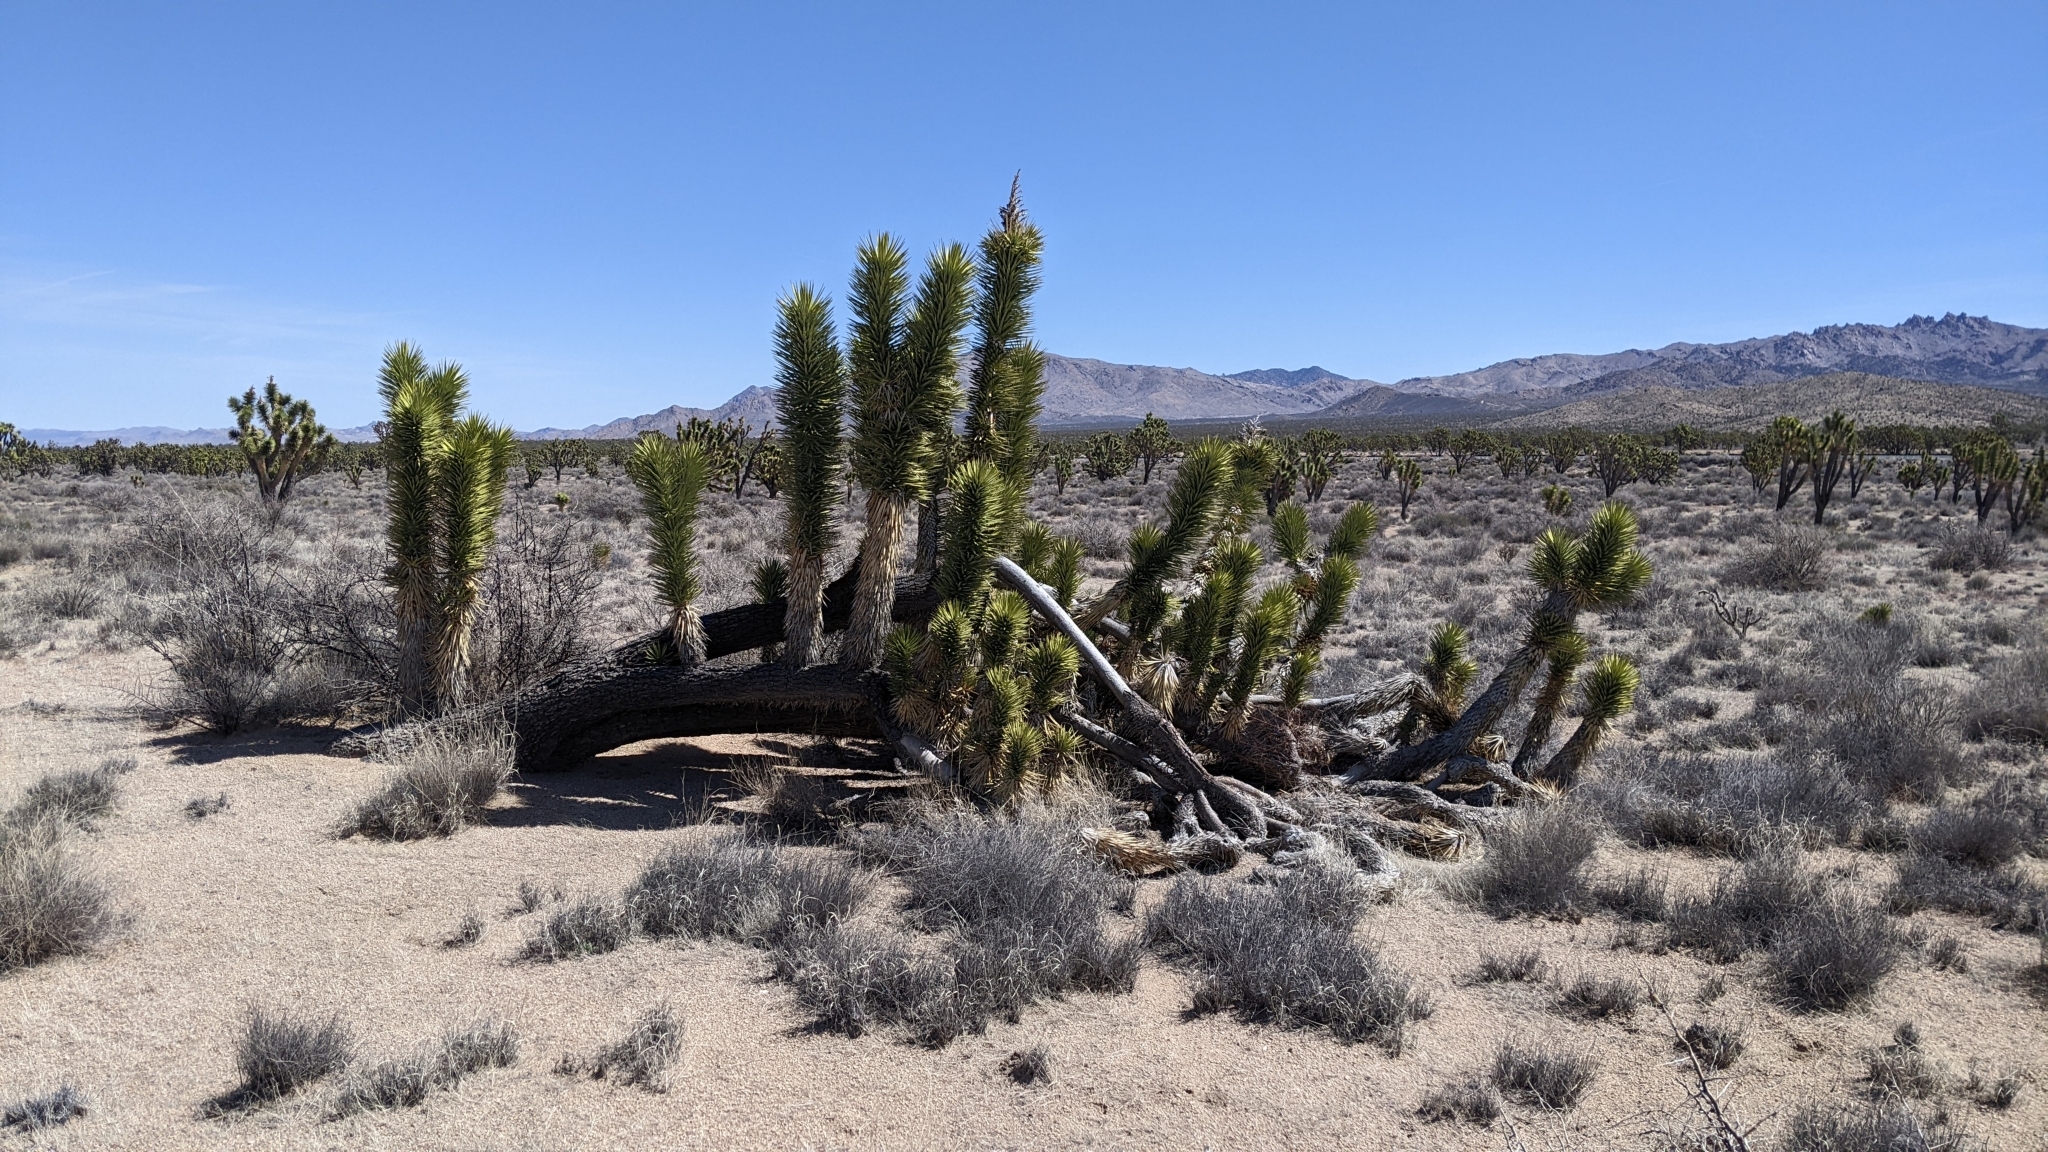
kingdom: Plantae
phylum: Tracheophyta
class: Liliopsida
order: Asparagales
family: Asparagaceae
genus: Yucca
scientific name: Yucca brevifolia
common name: Joshua tree
